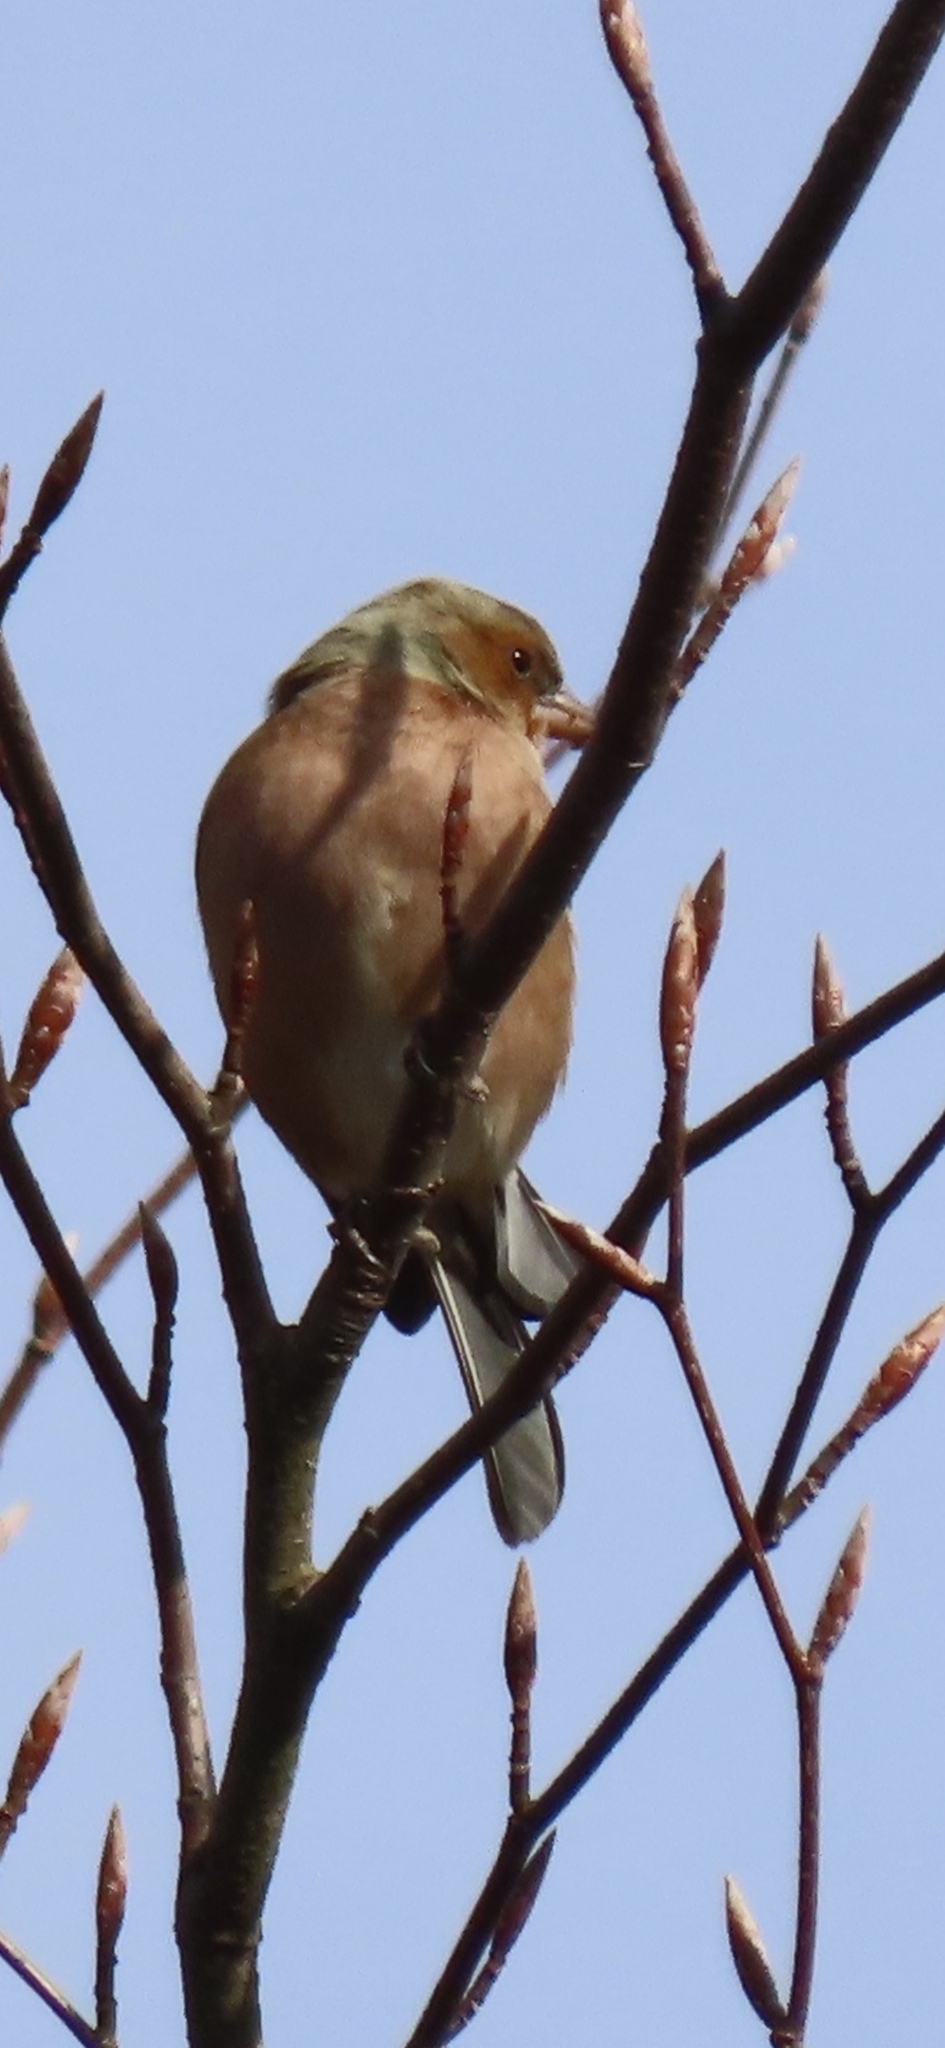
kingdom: Animalia
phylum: Chordata
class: Aves
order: Passeriformes
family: Fringillidae
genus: Fringilla
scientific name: Fringilla coelebs
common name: Common chaffinch
